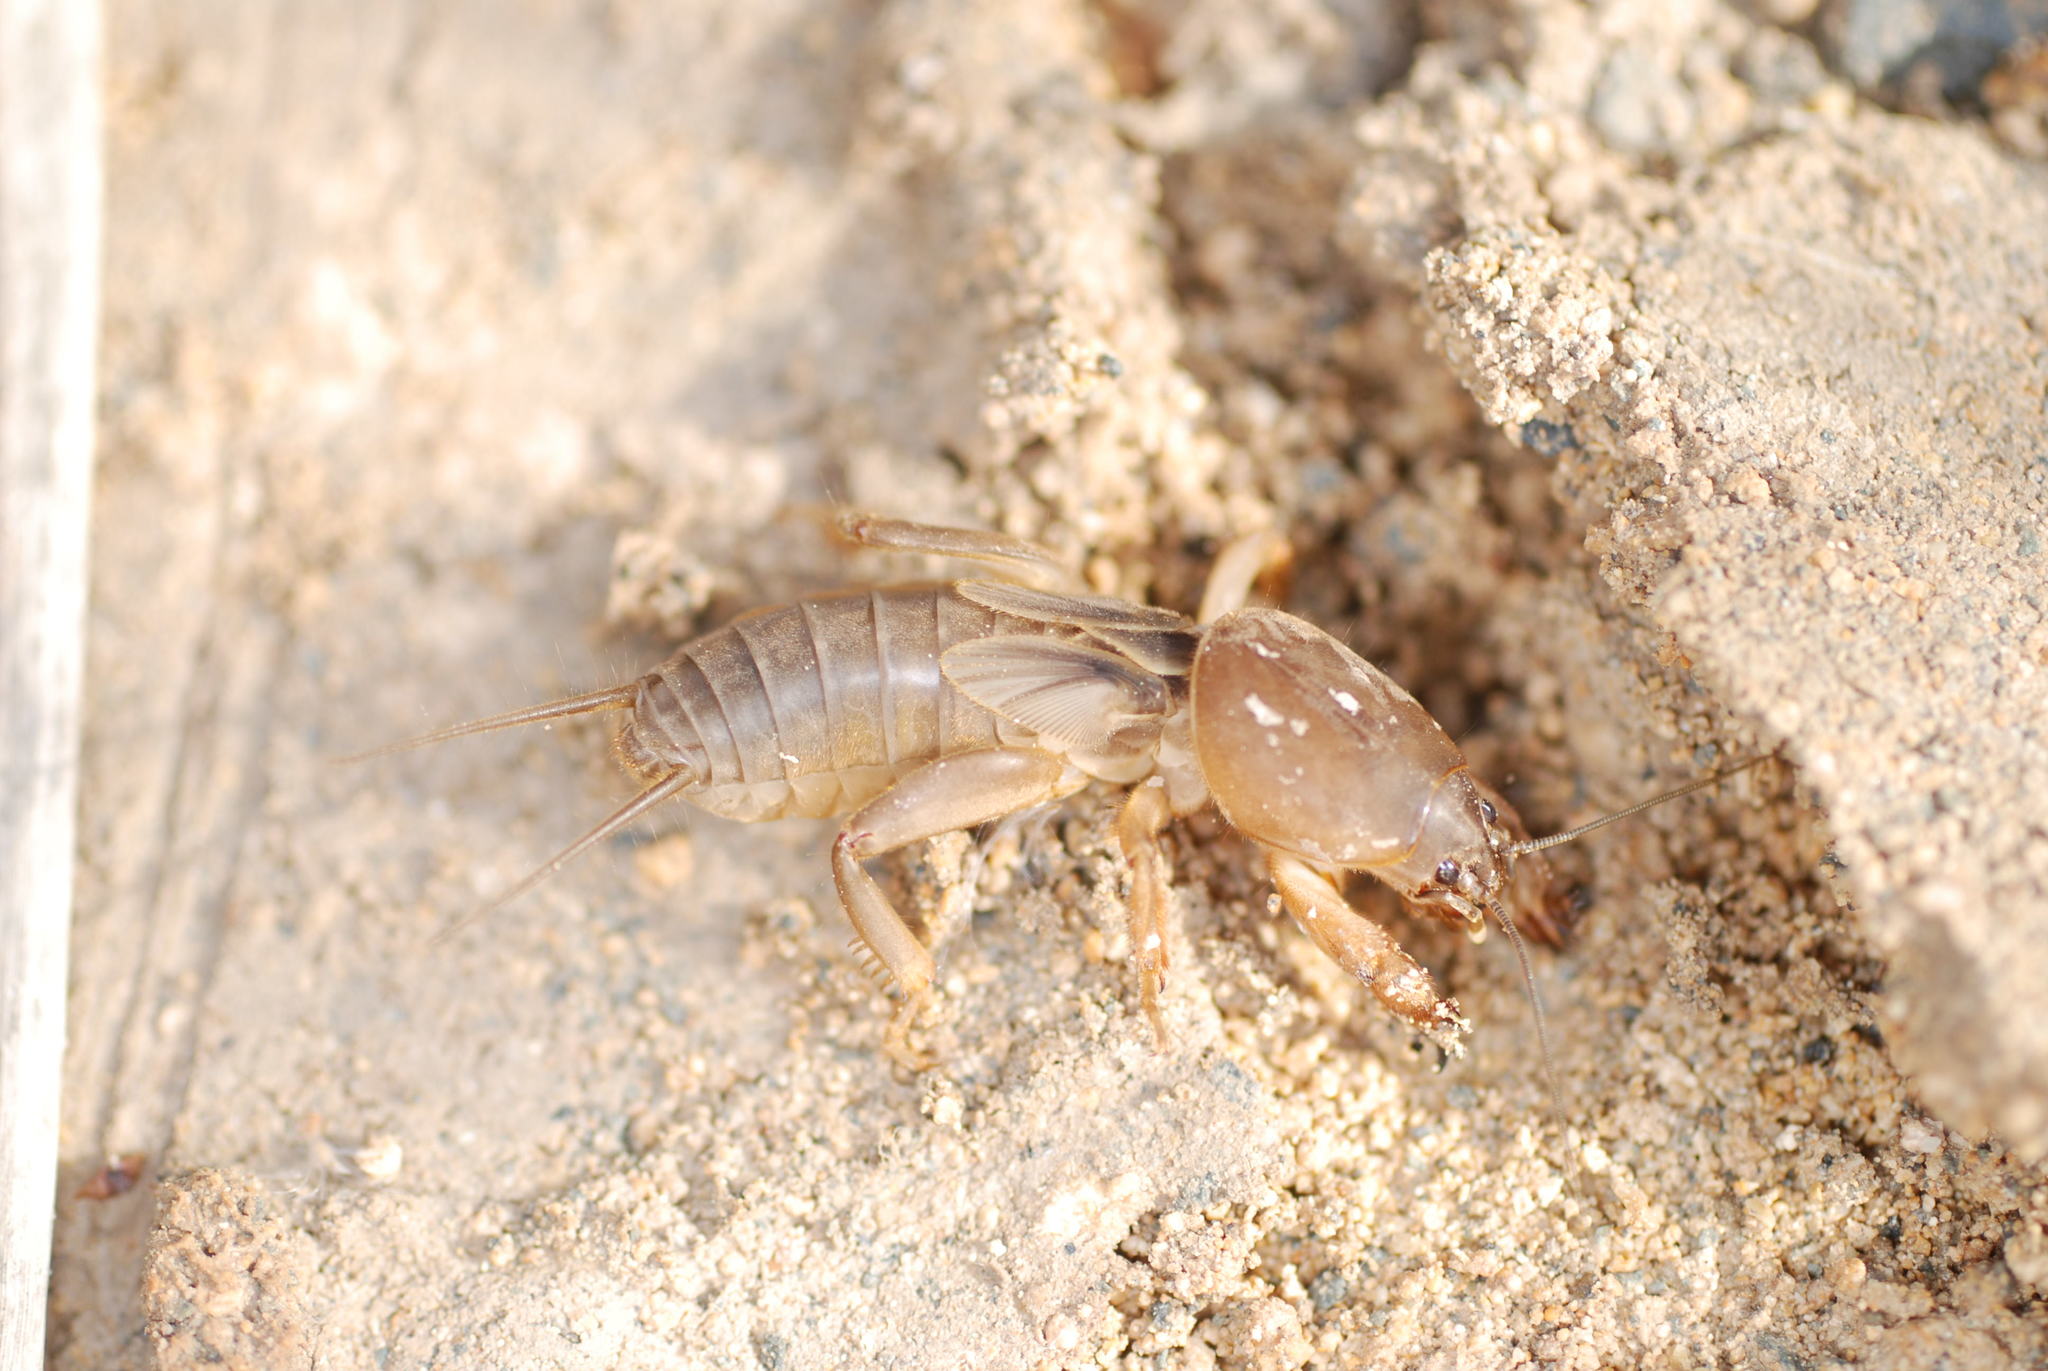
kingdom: Animalia
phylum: Arthropoda
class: Insecta
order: Orthoptera
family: Gryllotalpidae
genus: Gryllotalpa
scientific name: Gryllotalpa gryllotalpa
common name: European mole cricket
